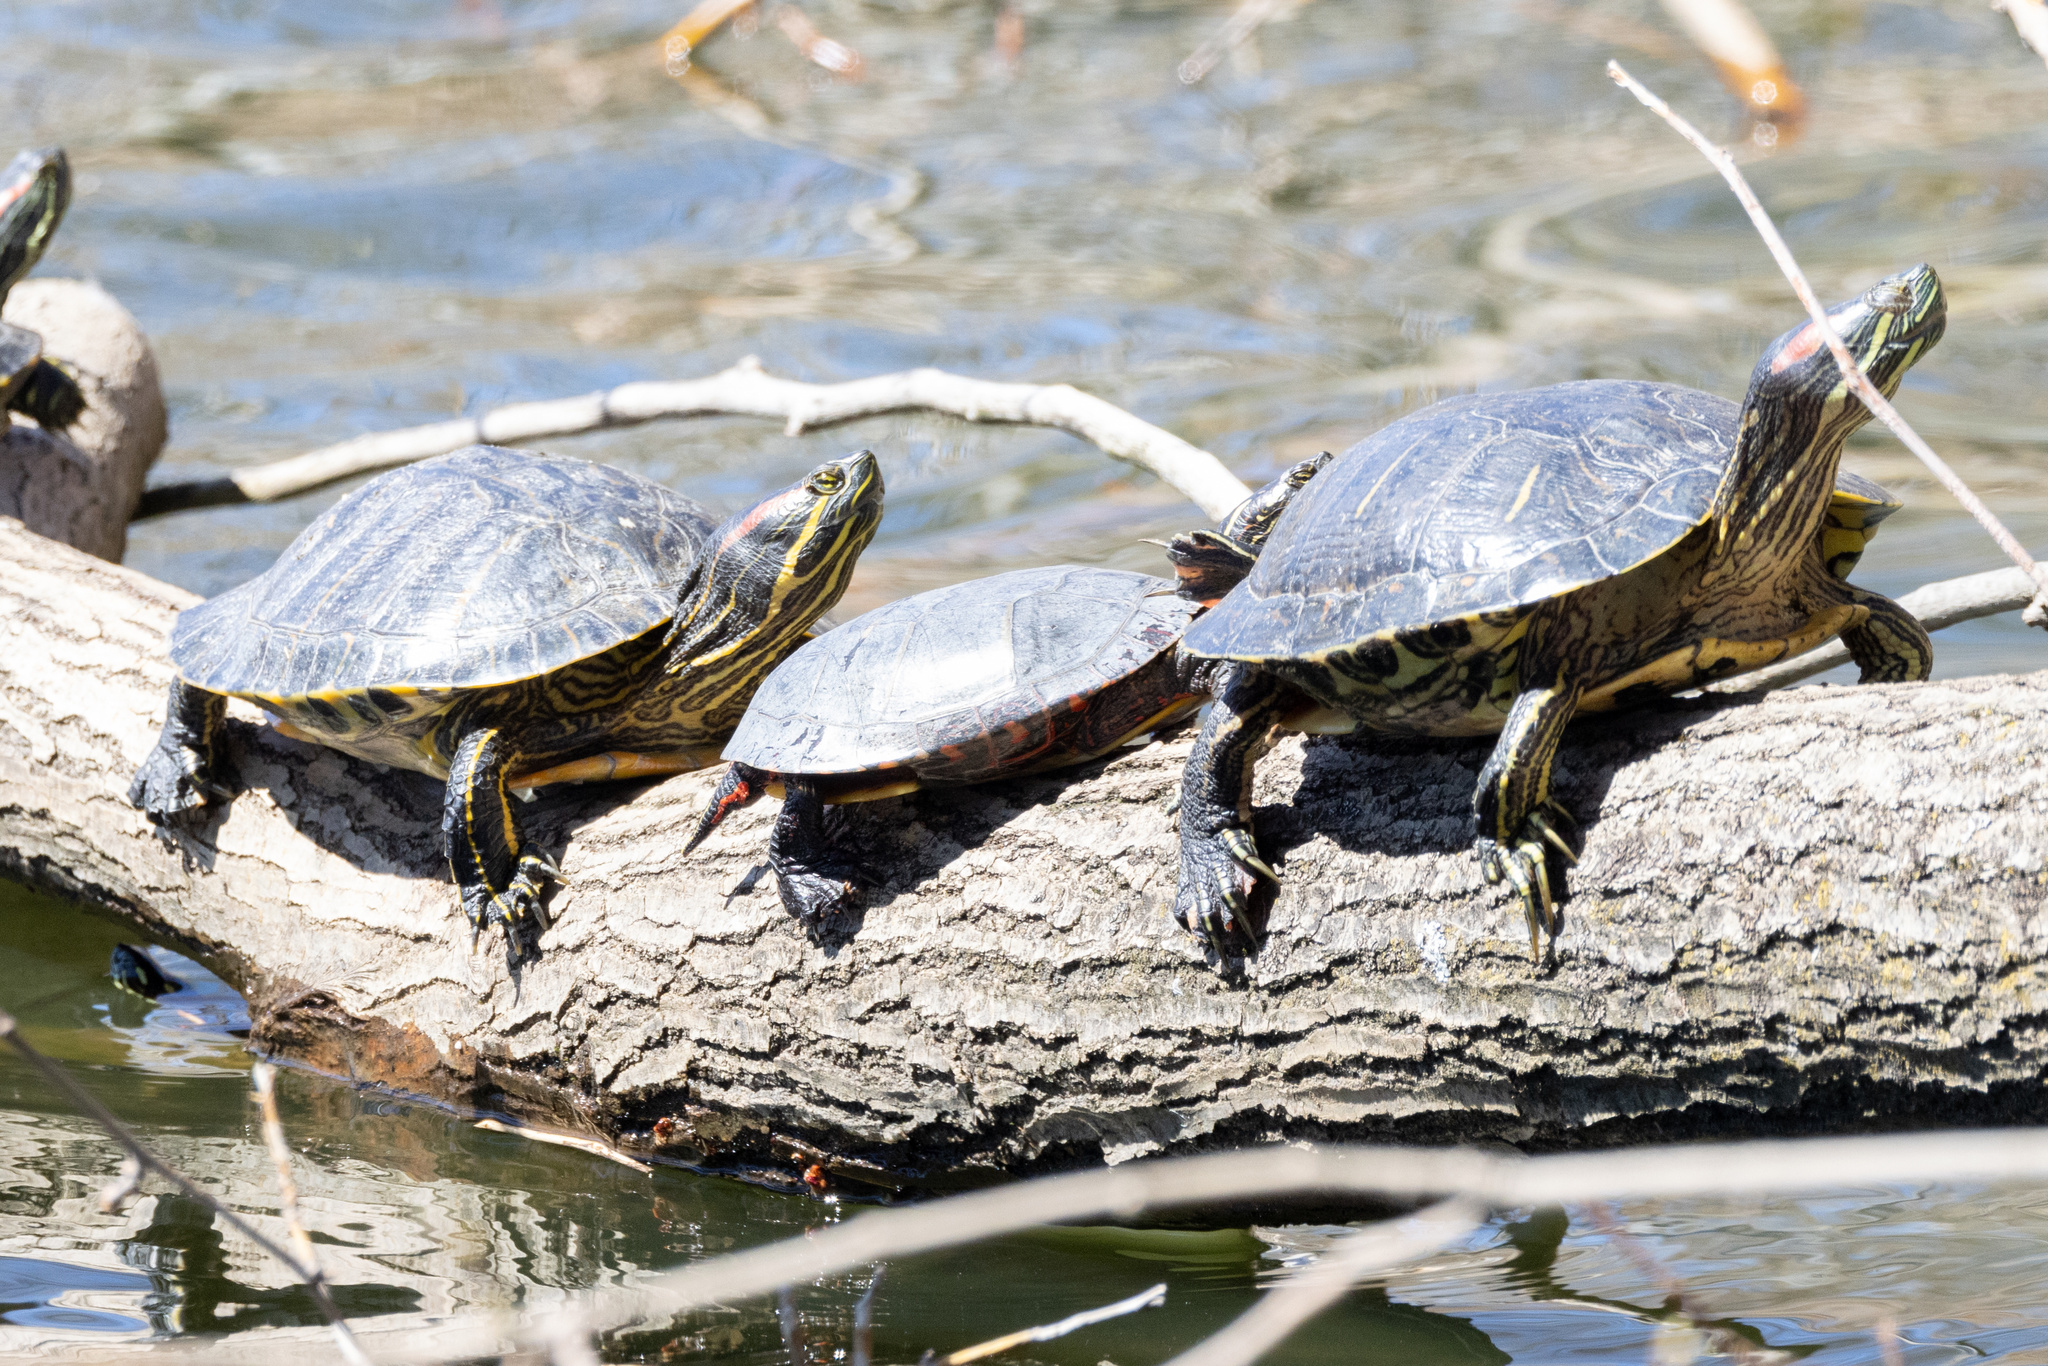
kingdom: Animalia
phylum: Chordata
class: Testudines
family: Emydidae
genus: Chrysemys
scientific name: Chrysemys picta
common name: Painted turtle
